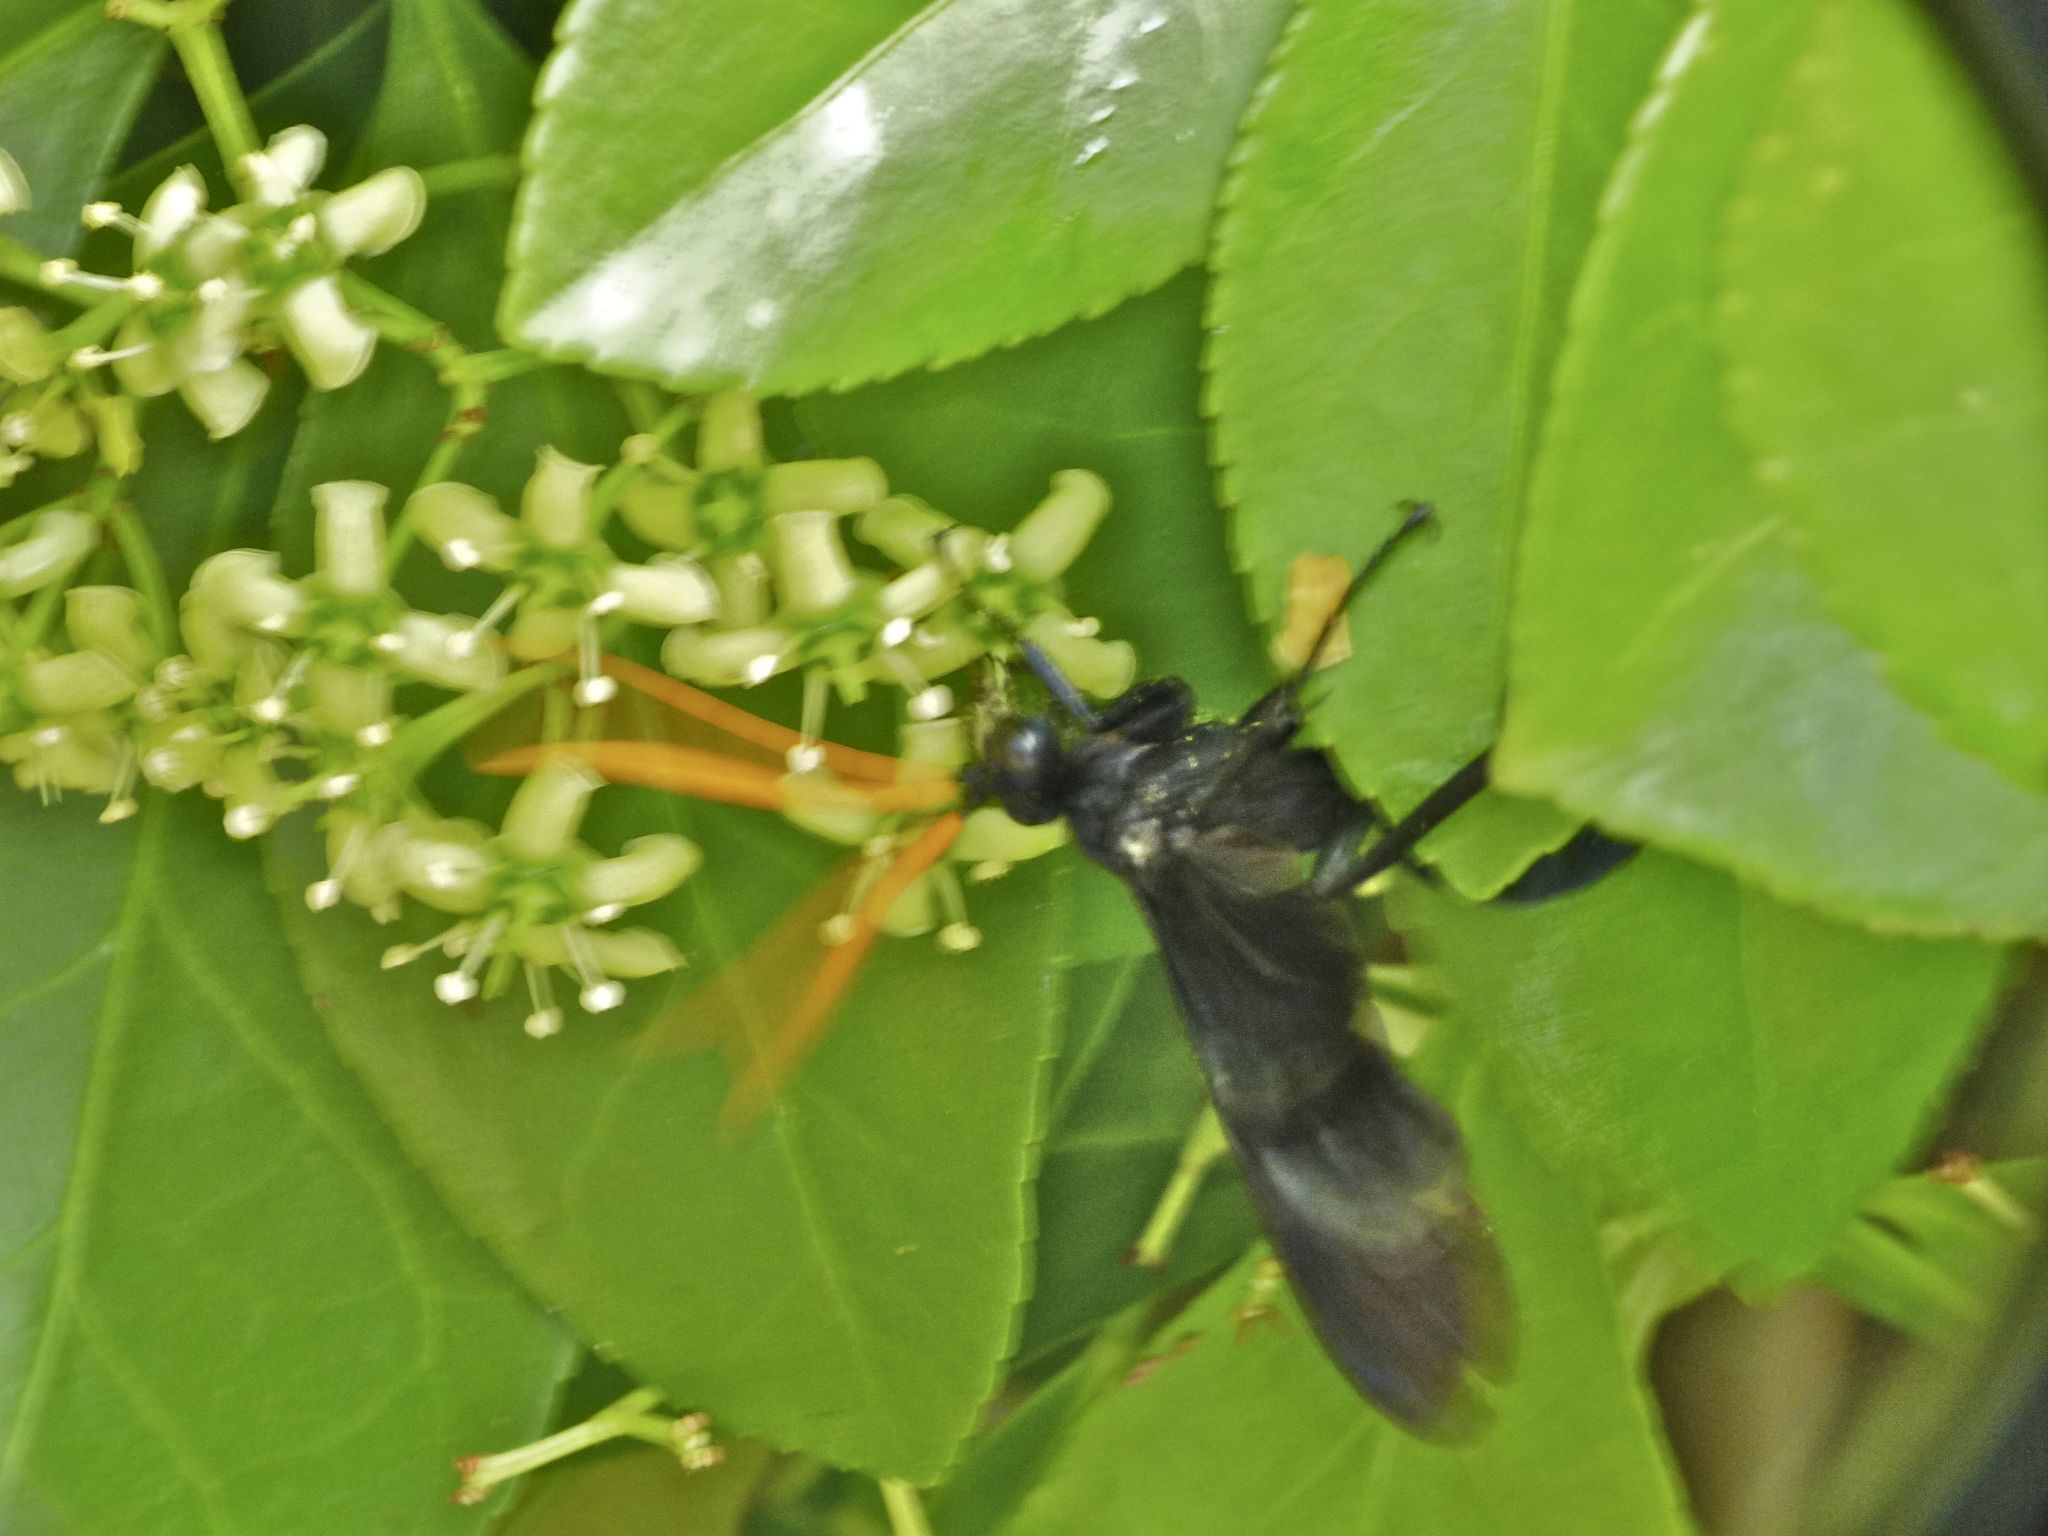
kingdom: Animalia
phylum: Arthropoda
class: Insecta
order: Hymenoptera
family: Pompilidae
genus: Pepsis
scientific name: Pepsis menechma
